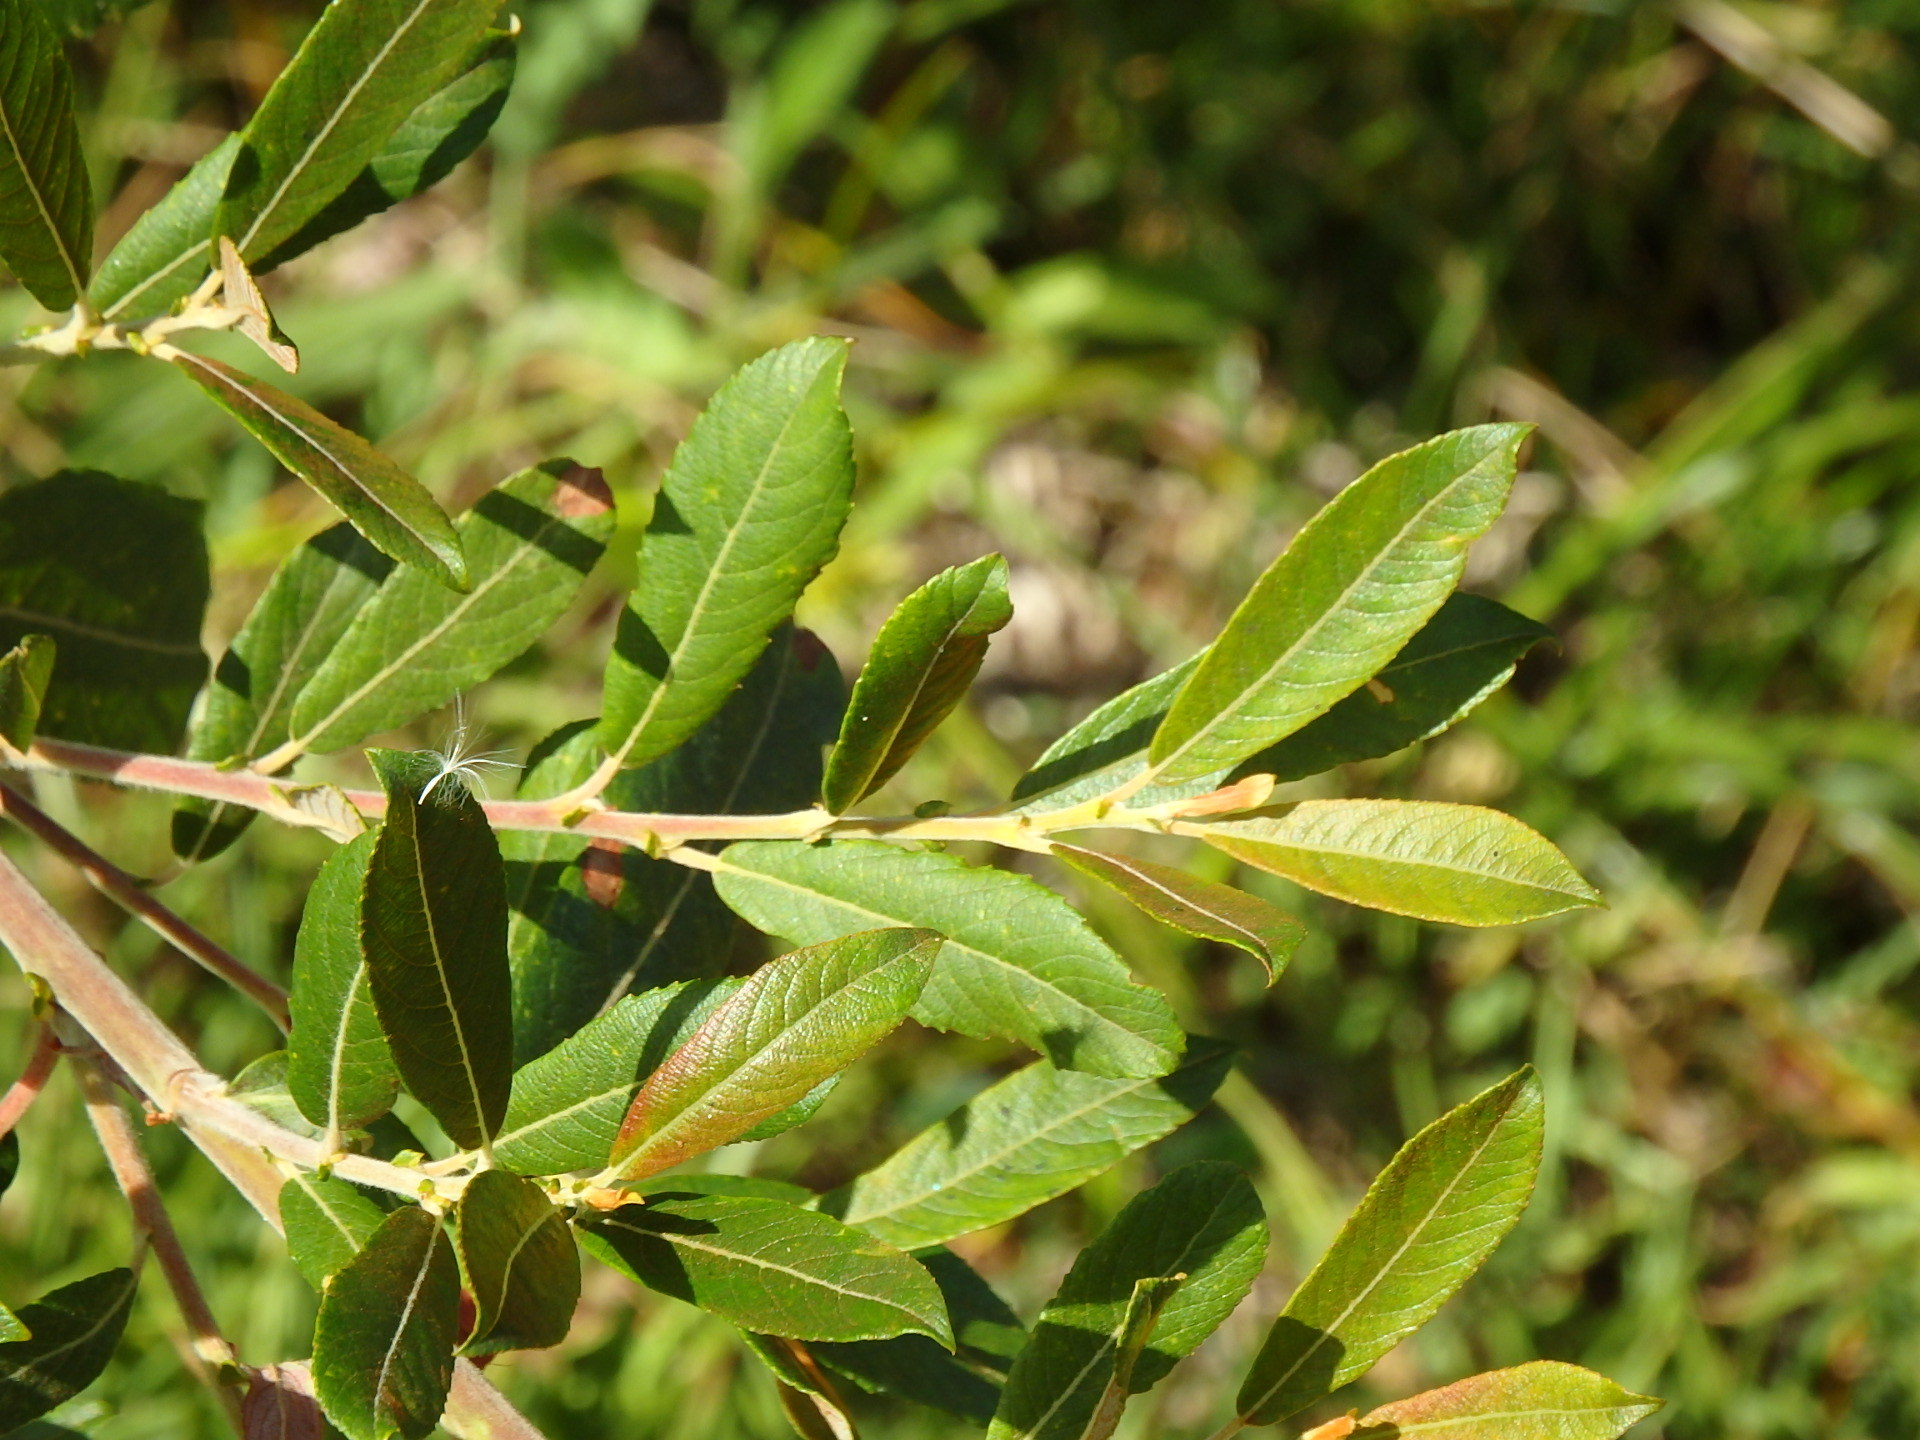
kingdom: Plantae
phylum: Tracheophyta
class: Magnoliopsida
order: Malpighiales
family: Salicaceae
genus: Salix
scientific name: Salix atrocinerea
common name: Rusty willow
